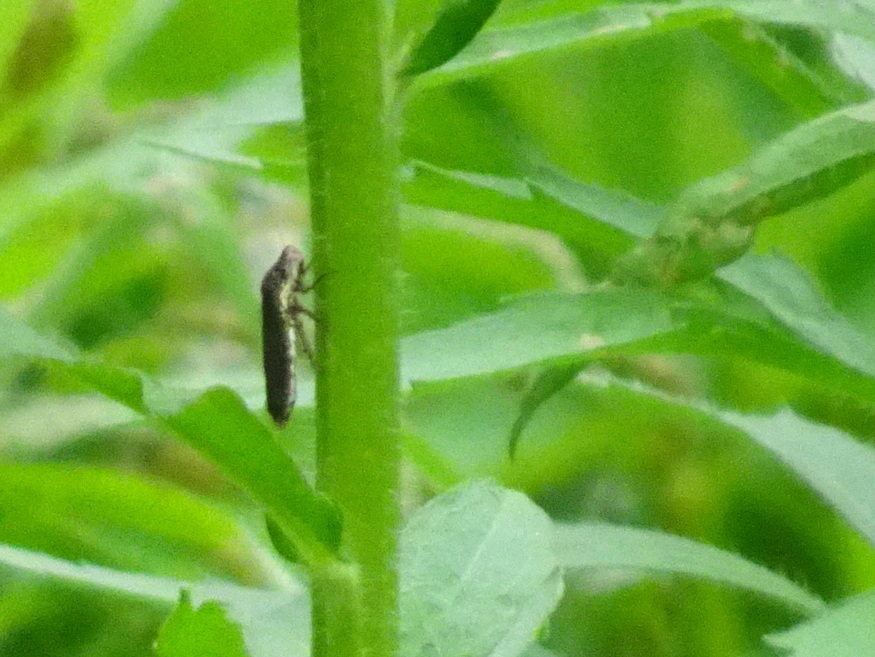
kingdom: Animalia
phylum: Arthropoda
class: Insecta
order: Hemiptera
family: Cicadellidae
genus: Paraulacizes
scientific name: Paraulacizes irrorata
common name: Speckled sharpshooter
